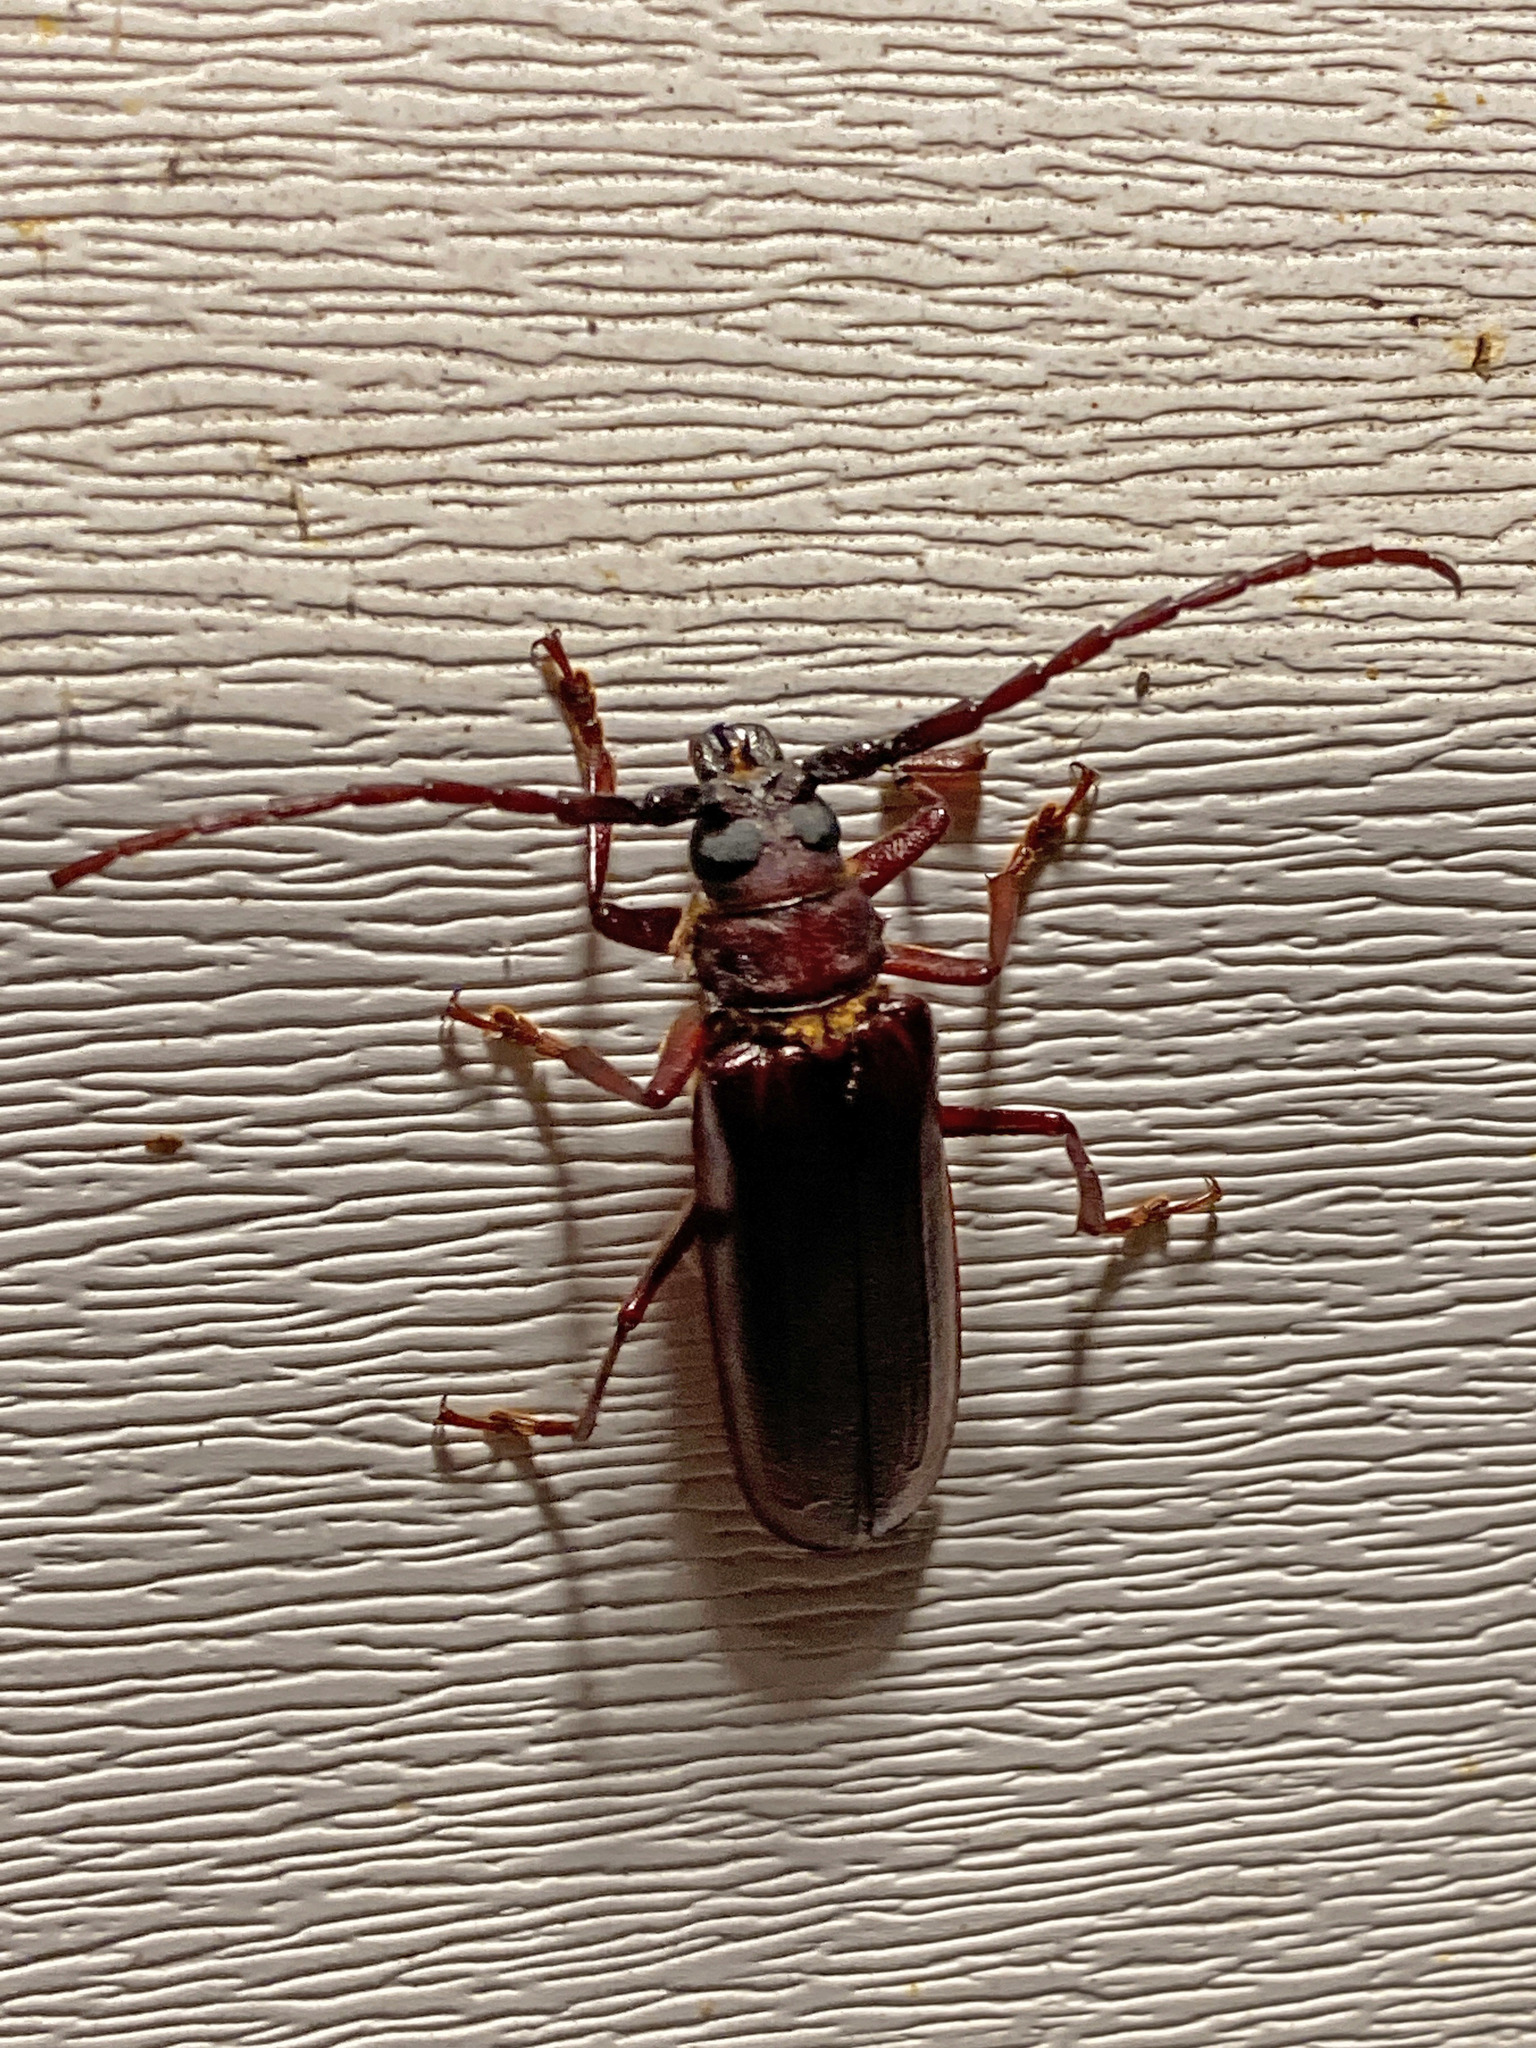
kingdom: Animalia
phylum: Arthropoda
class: Insecta
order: Coleoptera
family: Cerambycidae
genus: Orthosoma
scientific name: Orthosoma brunneum
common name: Brown prionid beetle
